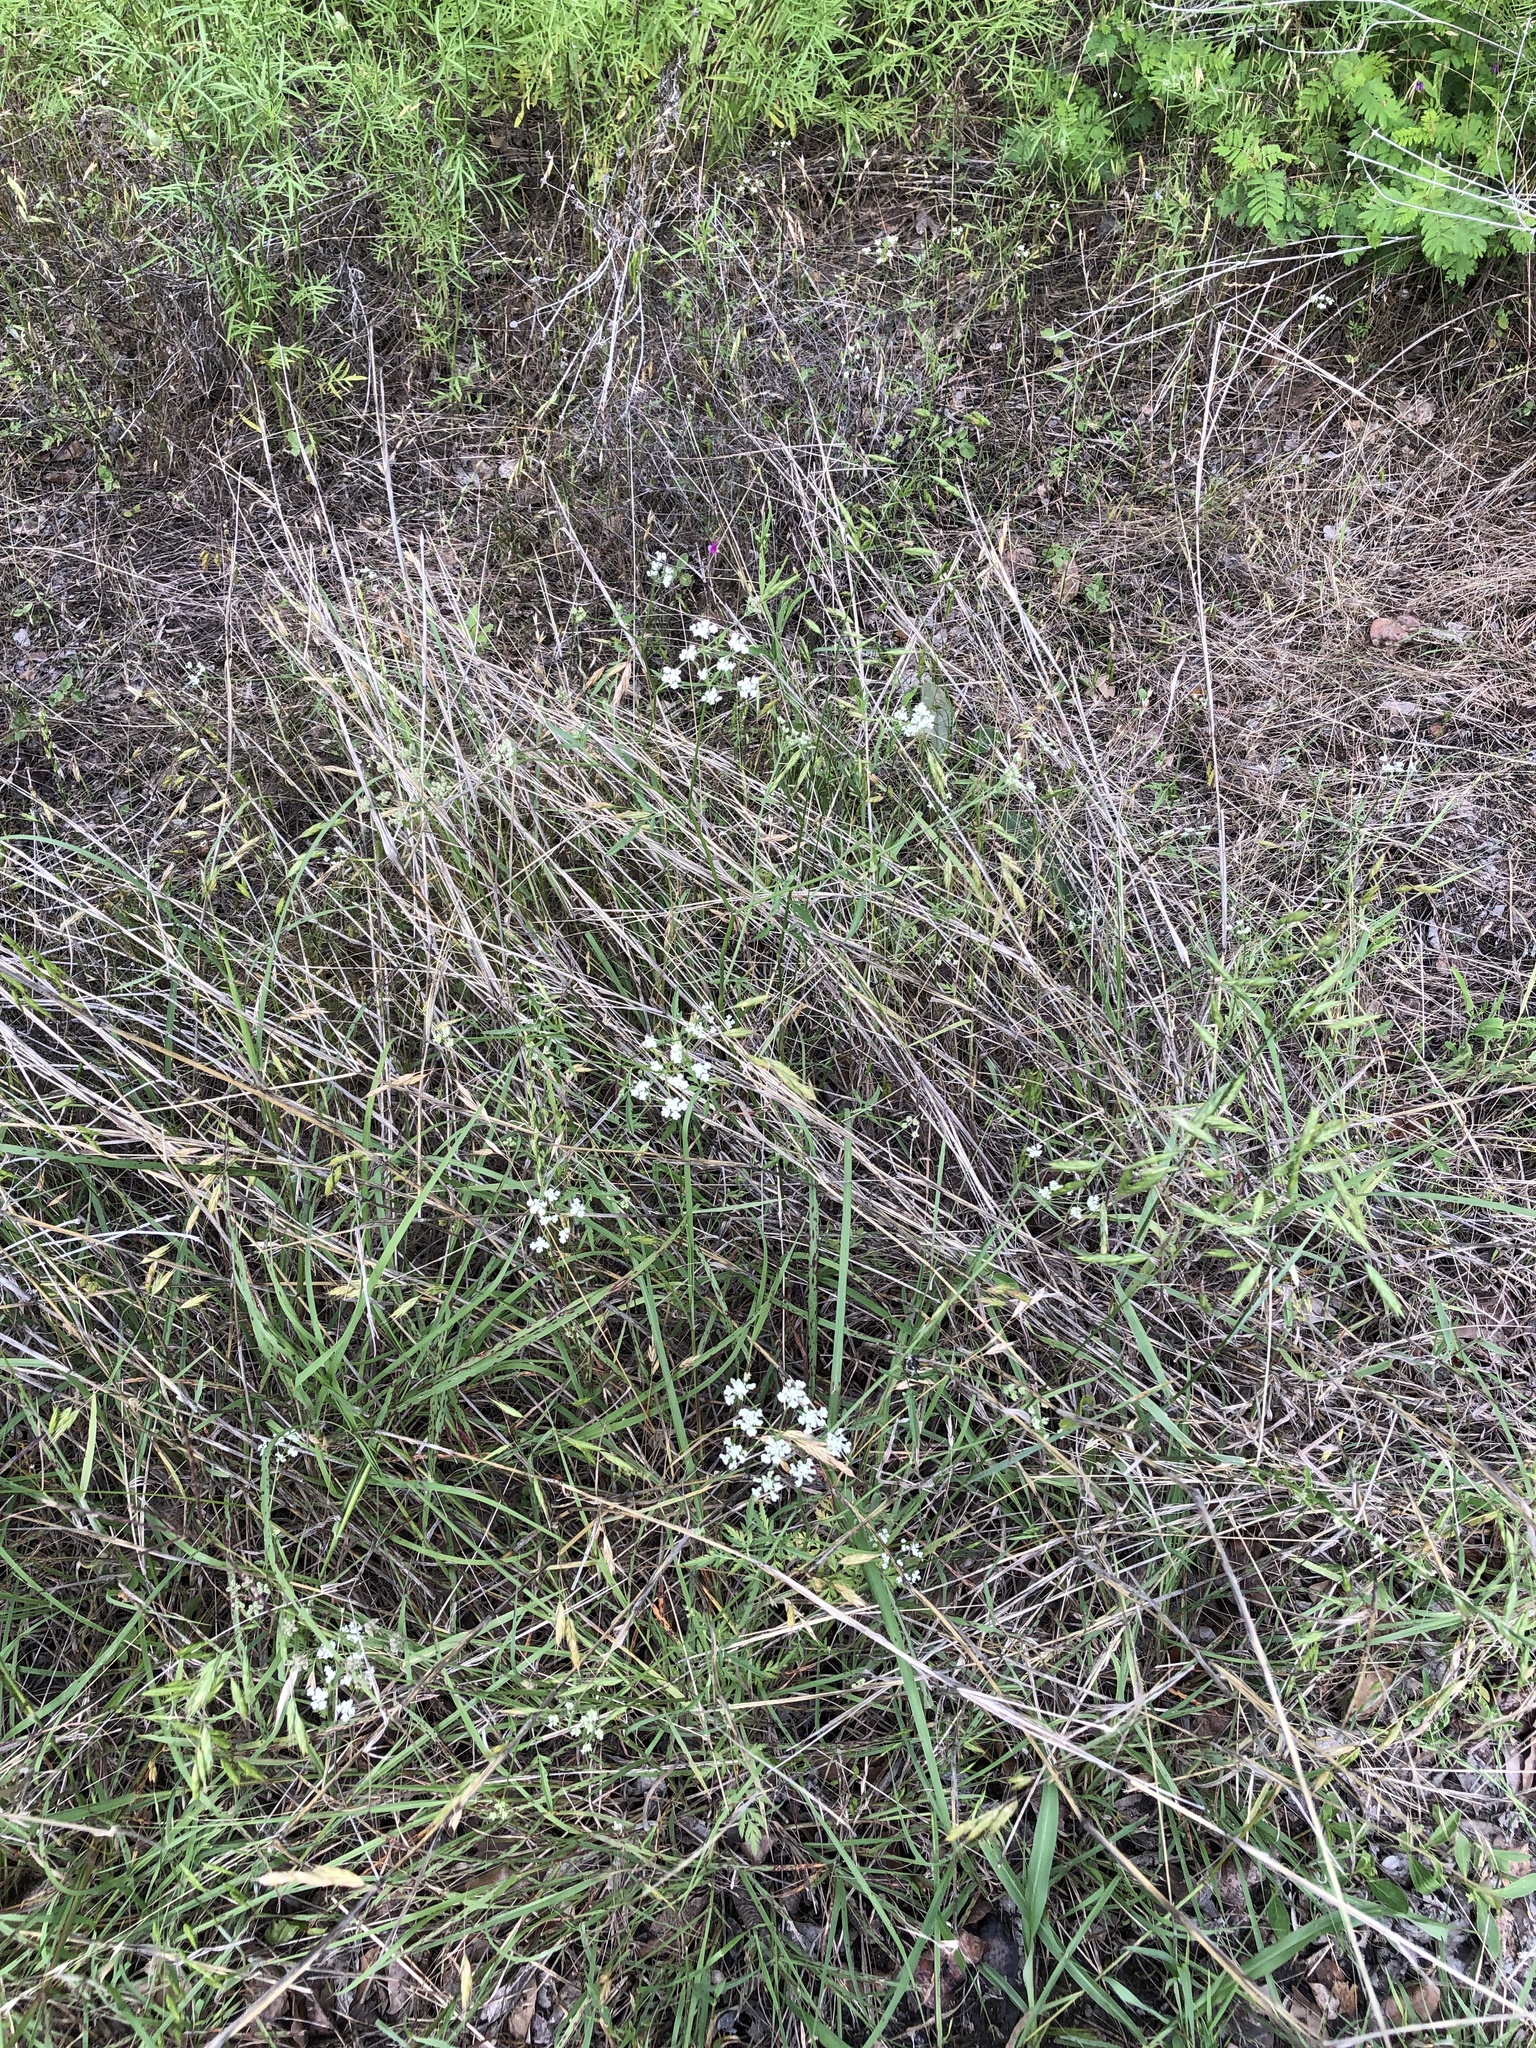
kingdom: Plantae
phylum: Tracheophyta
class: Magnoliopsida
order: Apiales
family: Apiaceae
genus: Torilis
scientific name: Torilis arvensis
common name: Spreading hedge-parsley
